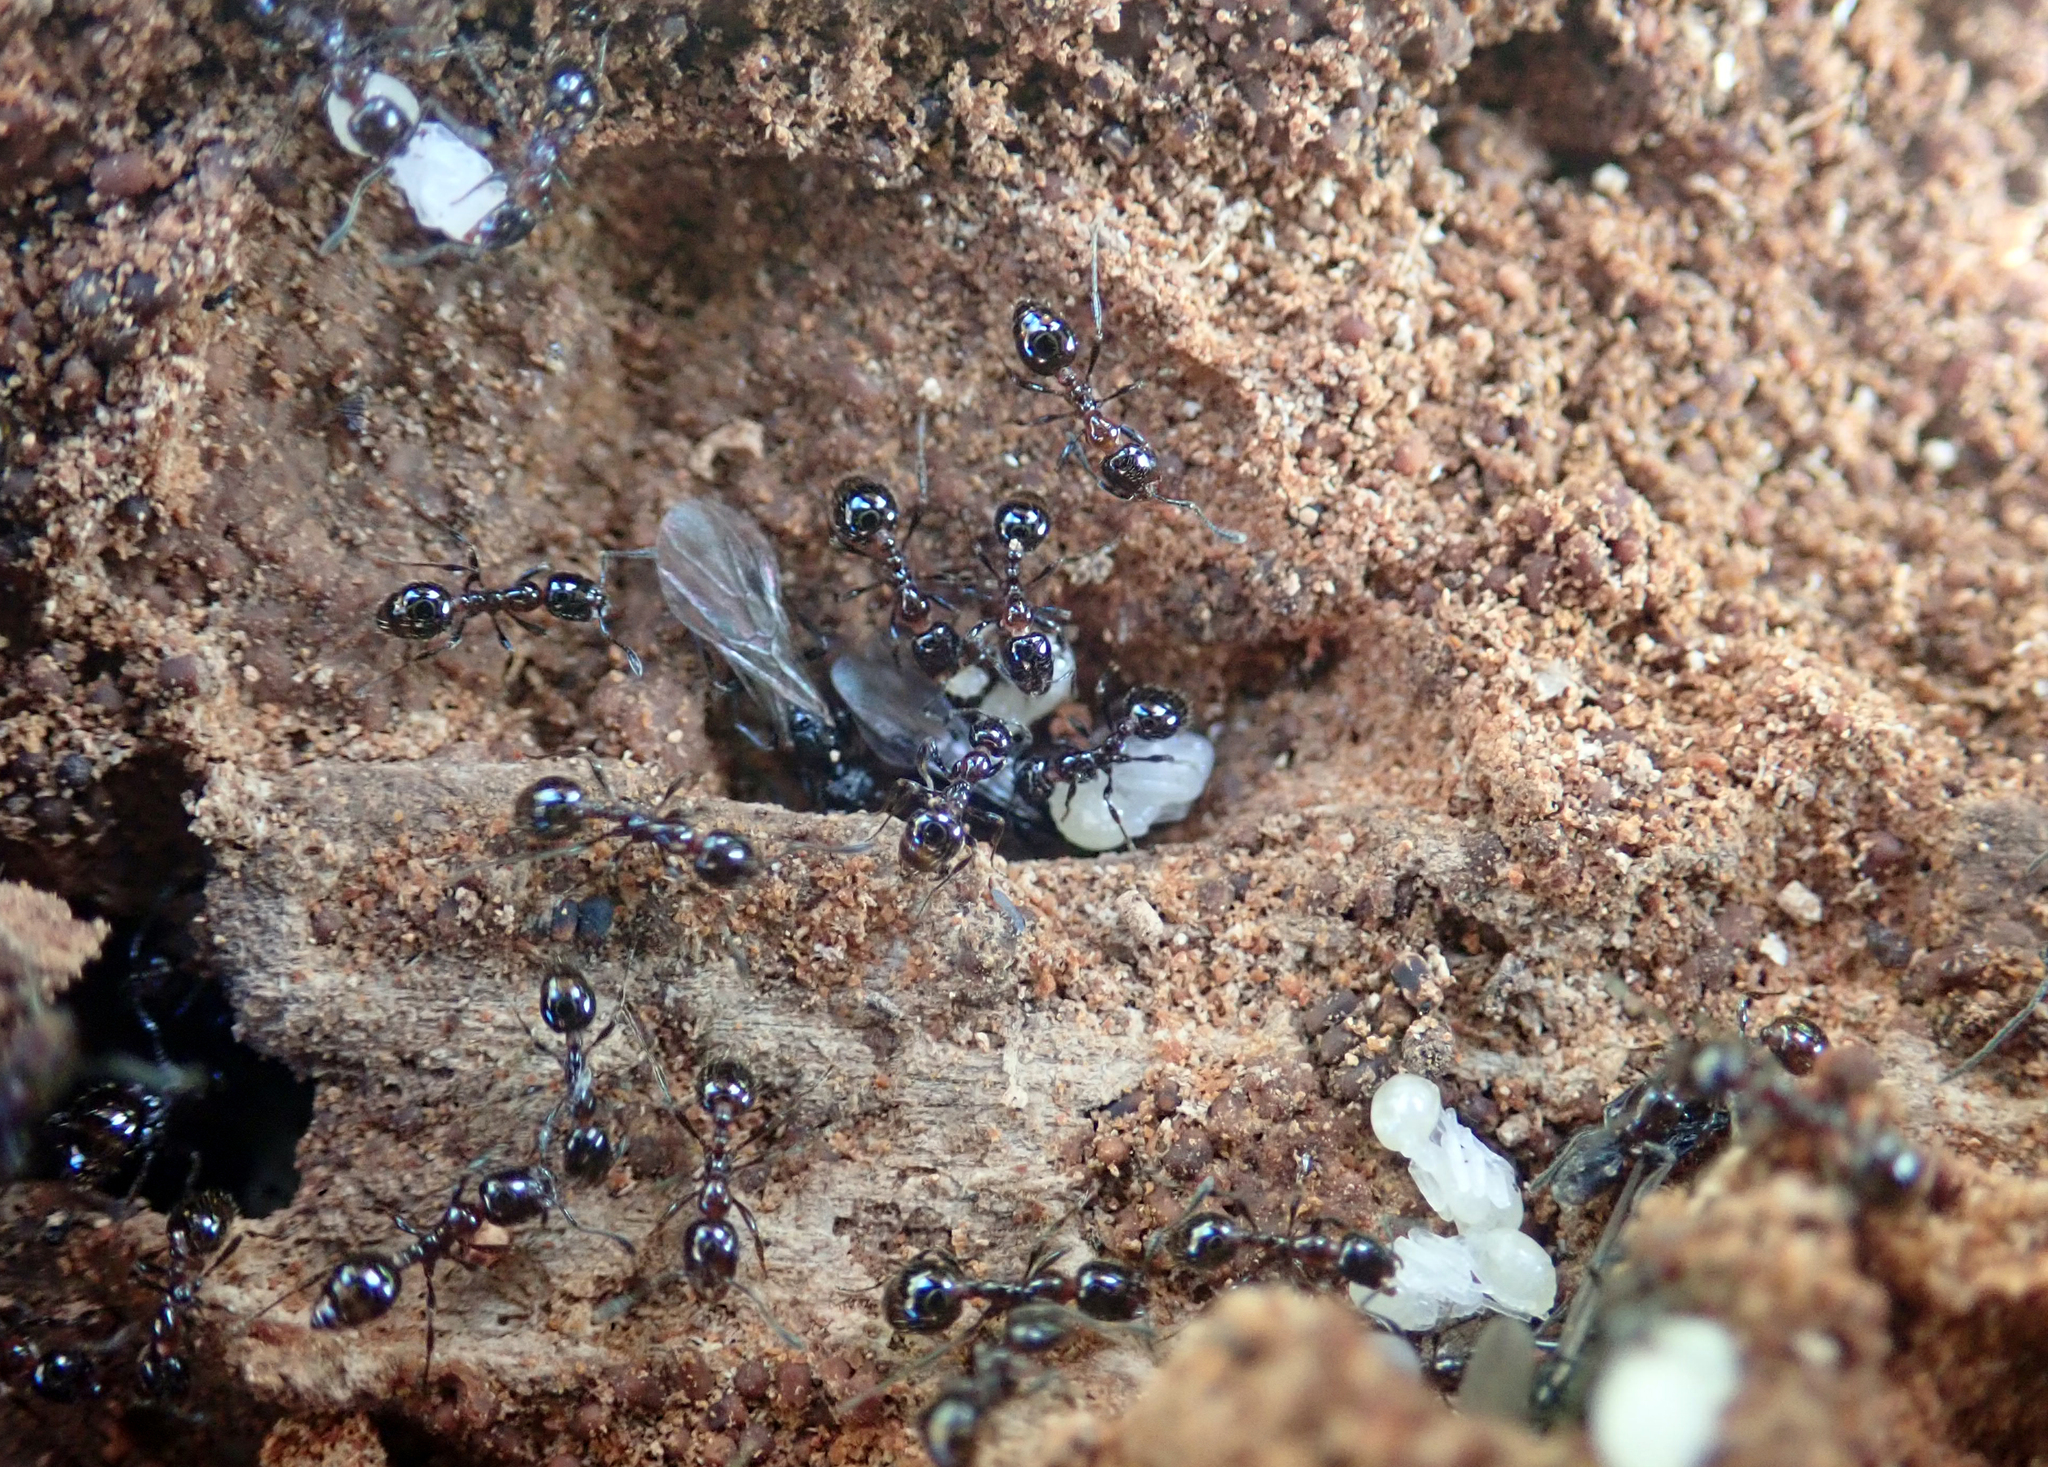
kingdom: Animalia
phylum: Arthropoda
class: Insecta
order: Hymenoptera
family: Formicidae
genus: Monomorium
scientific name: Monomorium antarcticum
